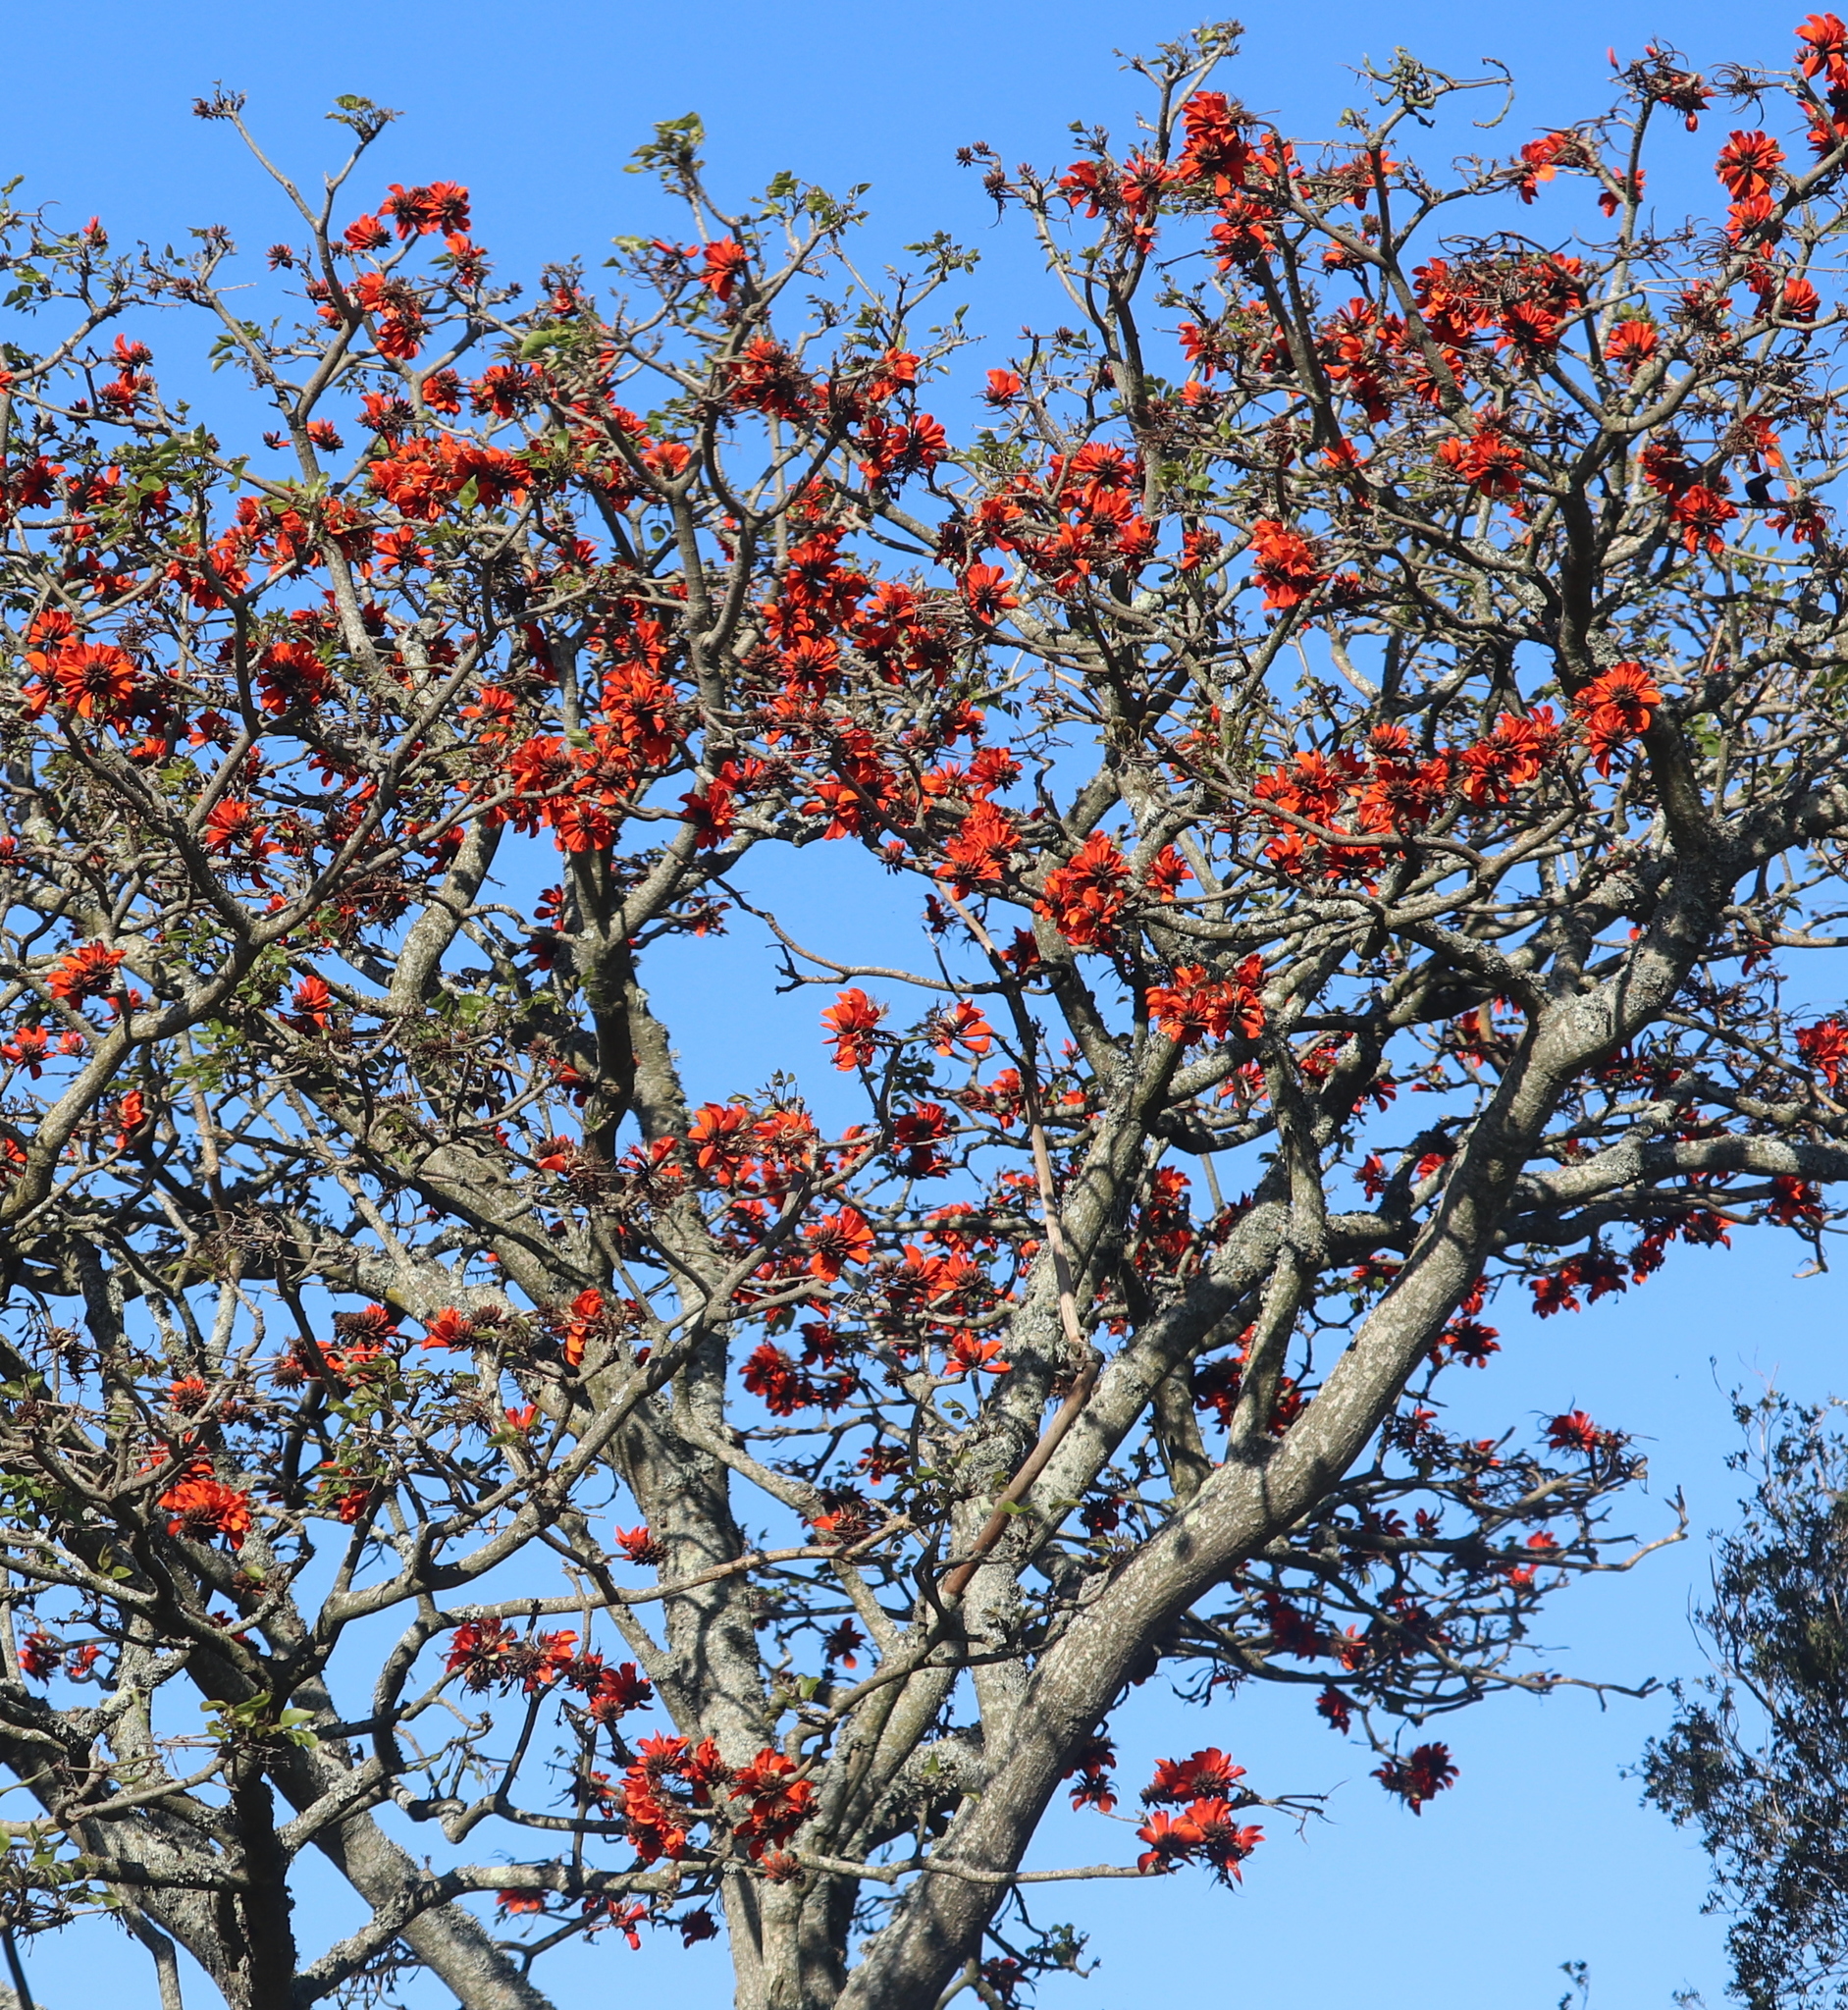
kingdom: Plantae
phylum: Tracheophyta
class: Magnoliopsida
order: Fabales
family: Fabaceae
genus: Erythrina
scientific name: Erythrina caffra
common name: Coast coral tree
